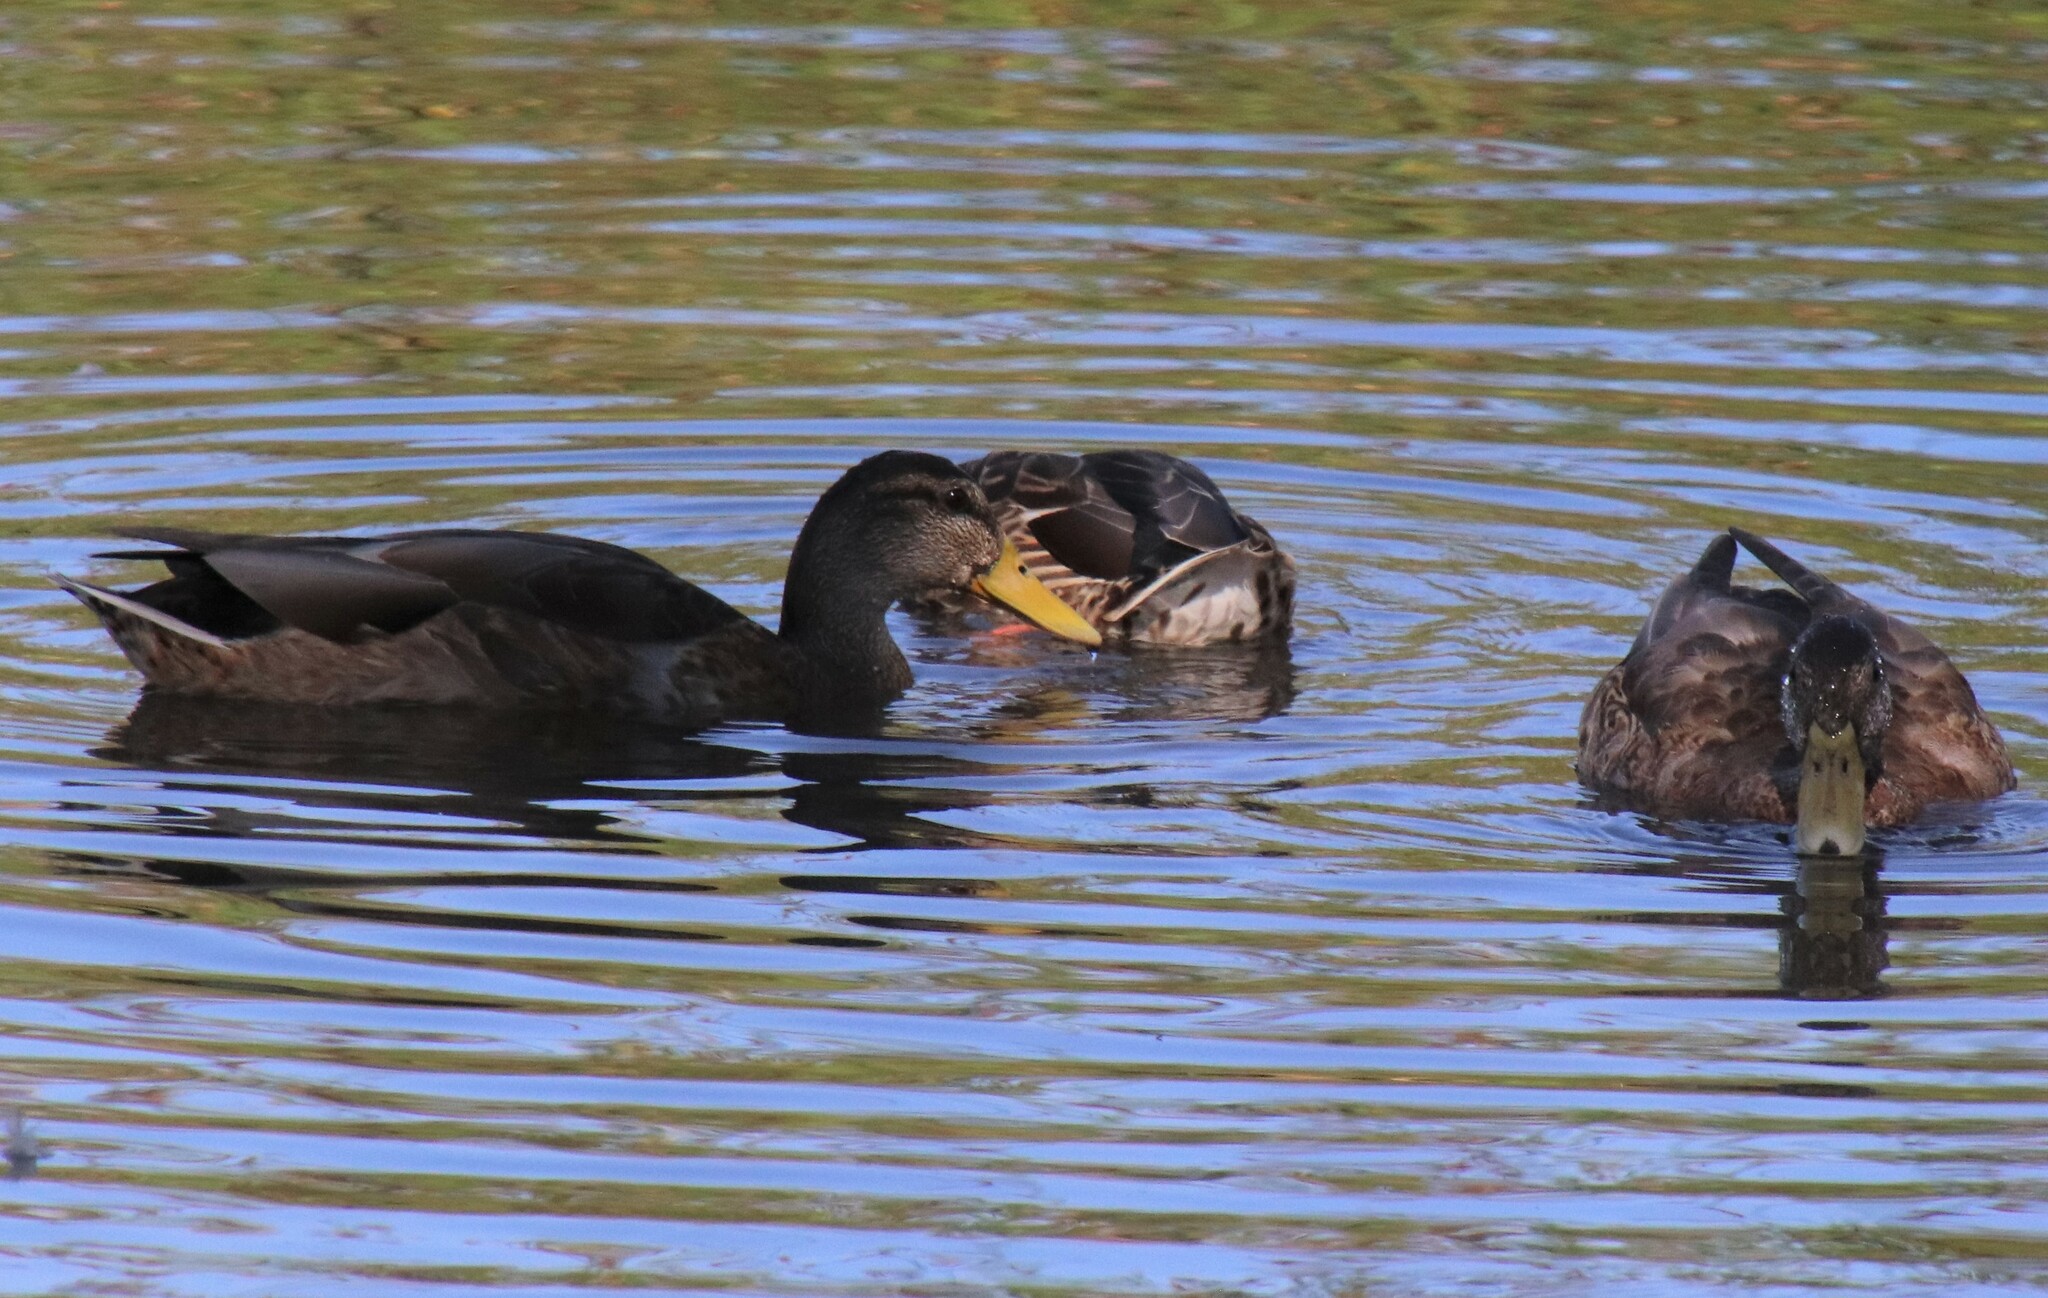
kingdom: Animalia
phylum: Chordata
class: Aves
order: Anseriformes
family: Anatidae
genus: Anas
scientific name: Anas platyrhynchos
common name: Mallard
